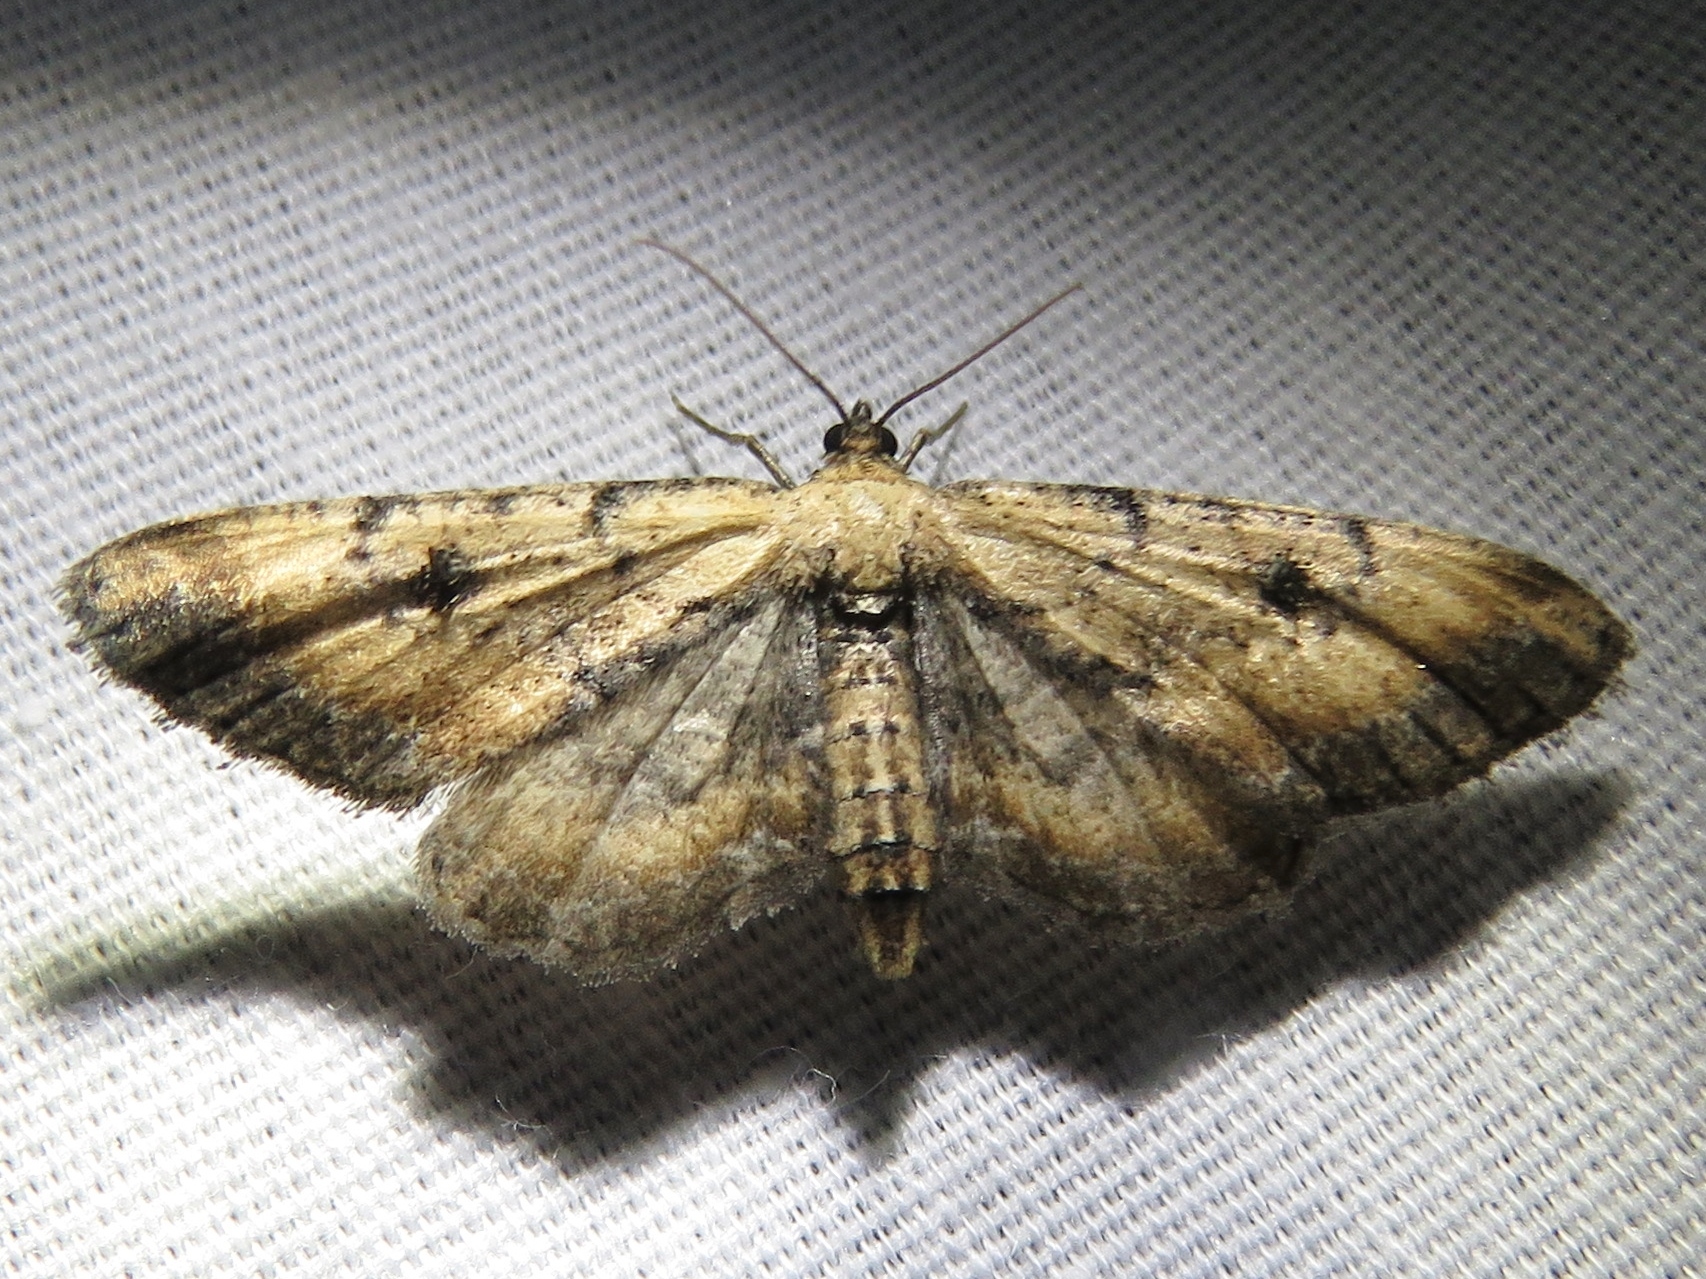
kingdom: Animalia
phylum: Arthropoda
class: Insecta
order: Lepidoptera
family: Geometridae
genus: Tornos
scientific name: Tornos scolopacinaria
